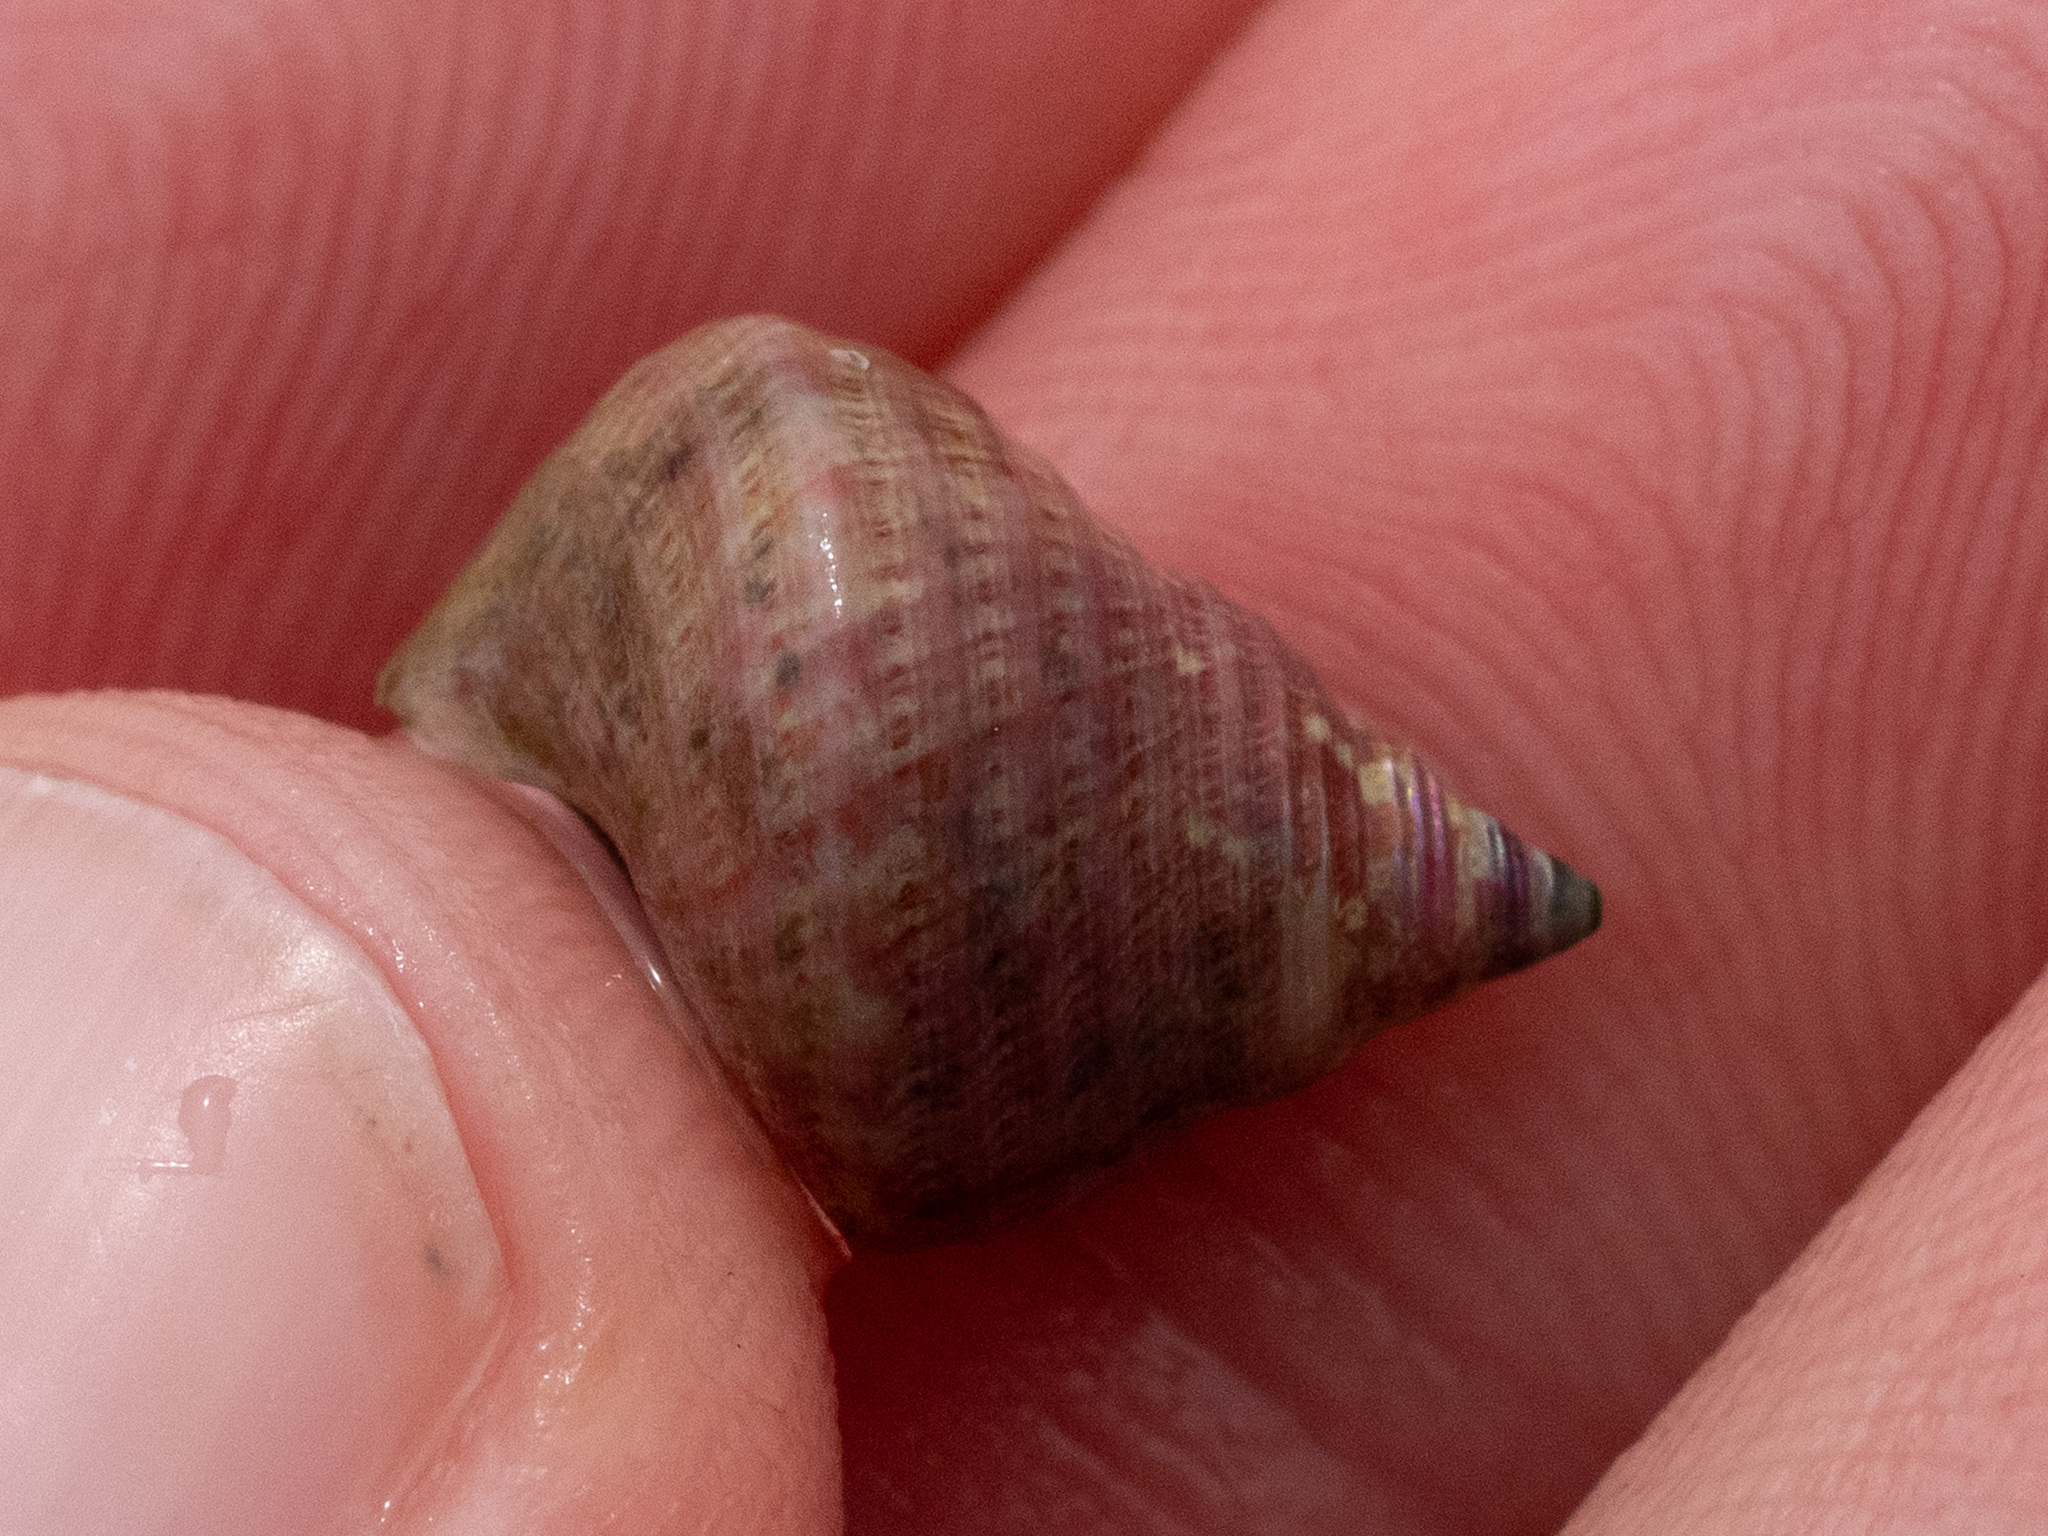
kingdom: Animalia
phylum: Mollusca
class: Gastropoda
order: Trochida
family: Trochidae
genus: Micrelenchus
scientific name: Micrelenchus purpureus
